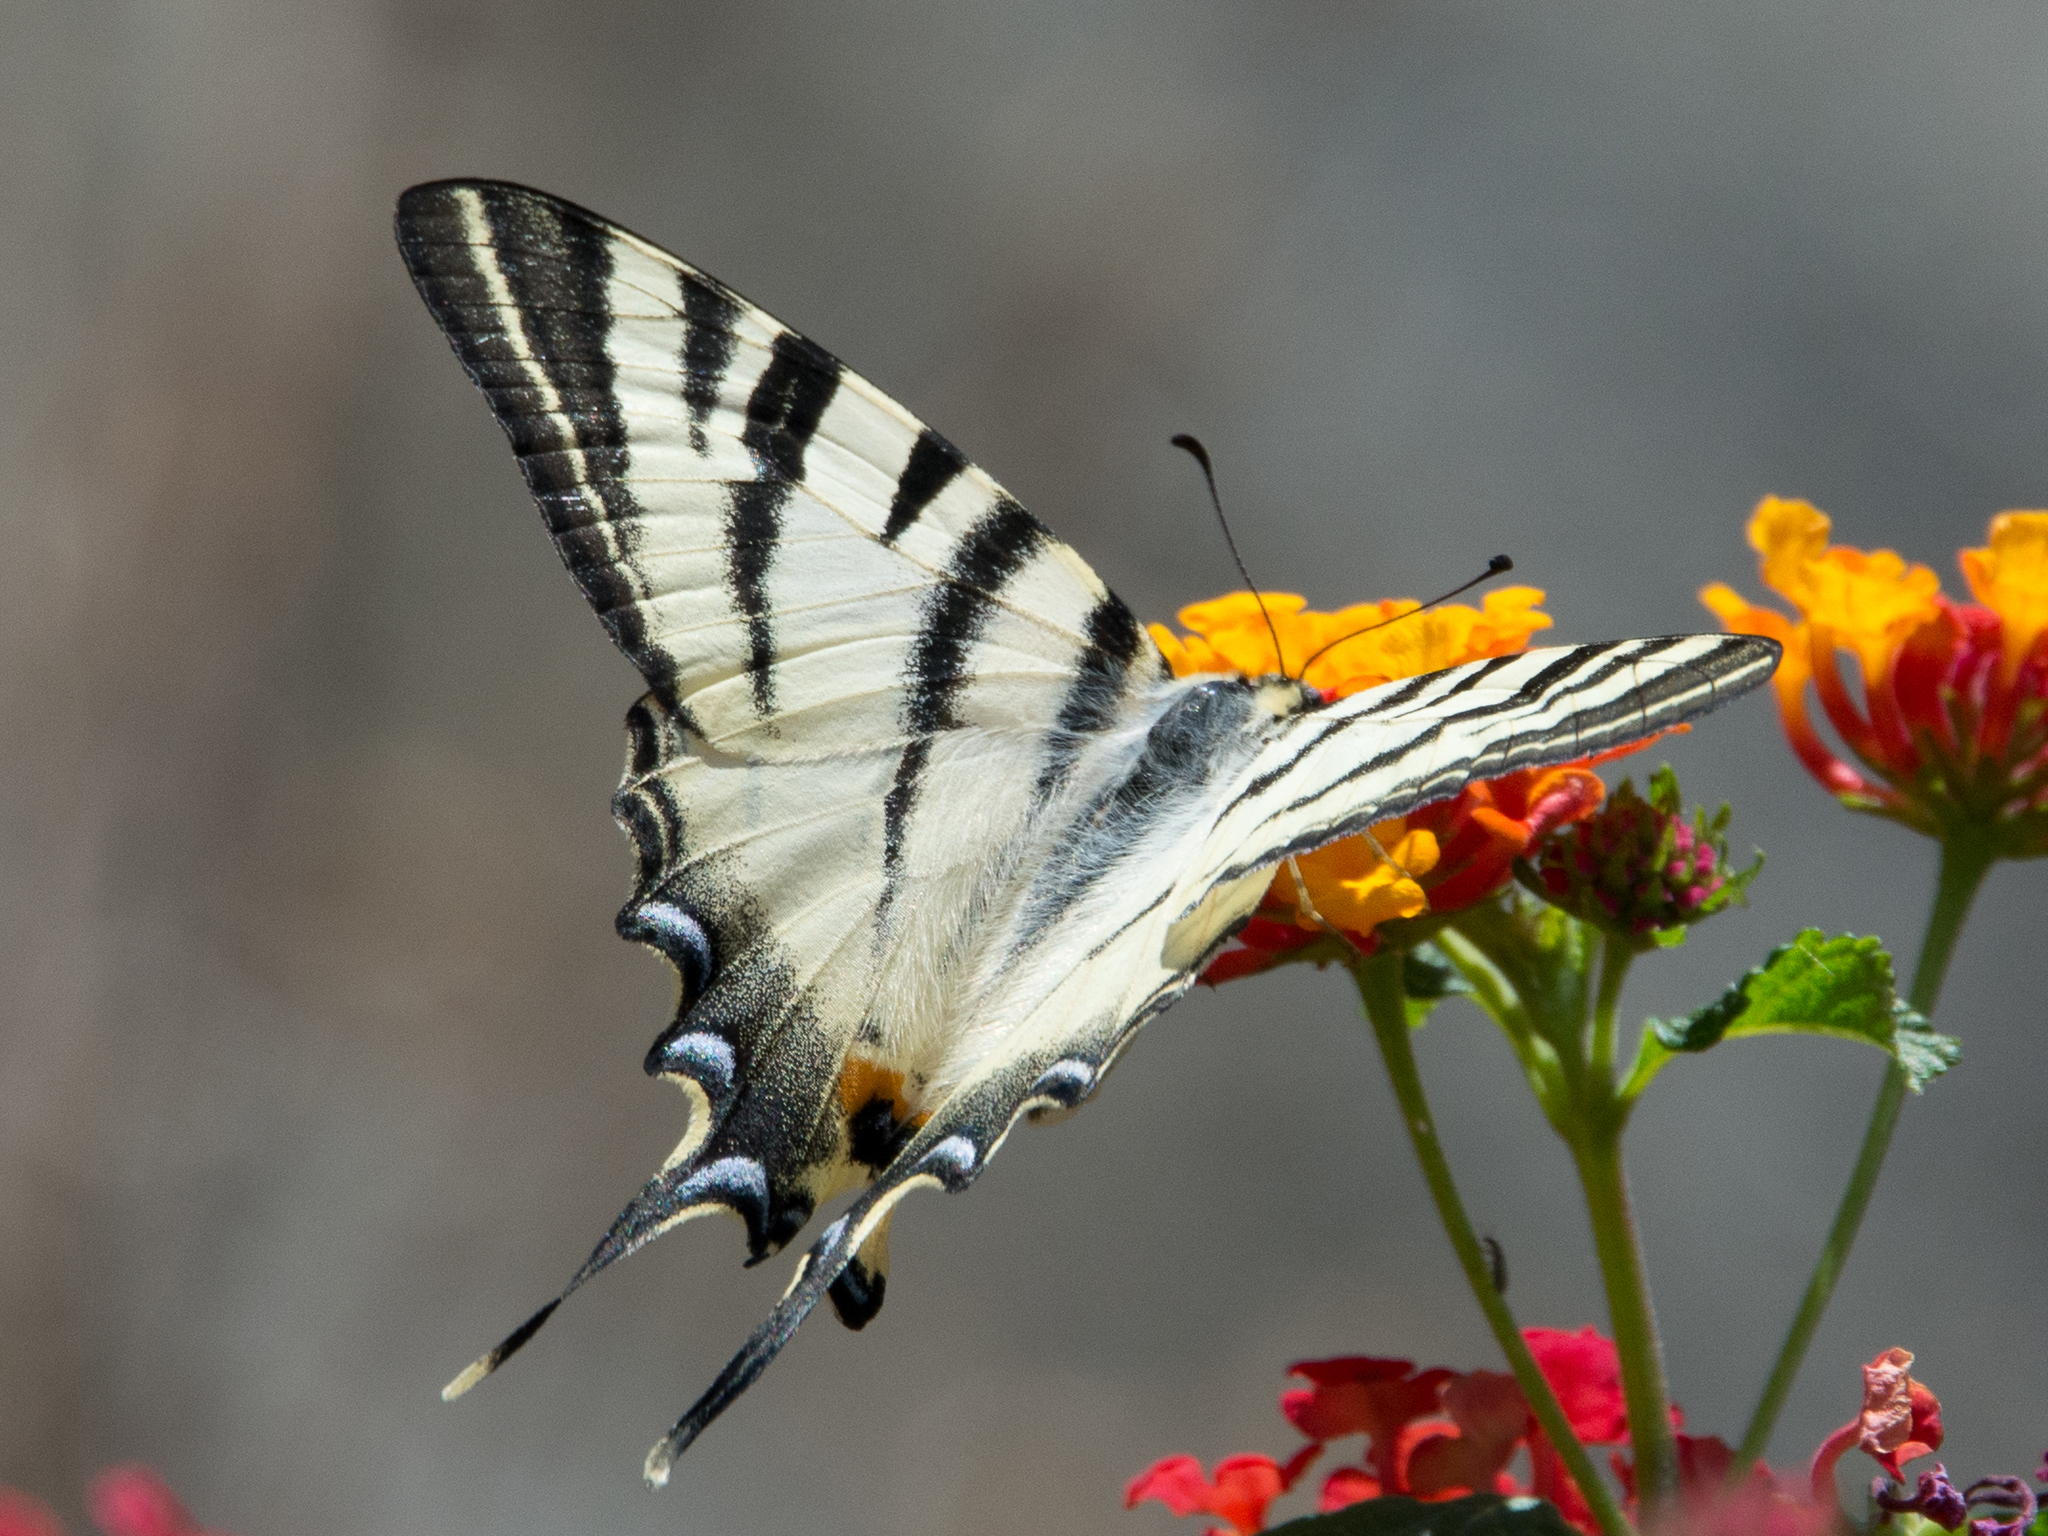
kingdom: Animalia
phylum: Arthropoda
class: Insecta
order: Lepidoptera
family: Papilionidae
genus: Iphiclides
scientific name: Iphiclides podalirius
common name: Scarce swallowtail
